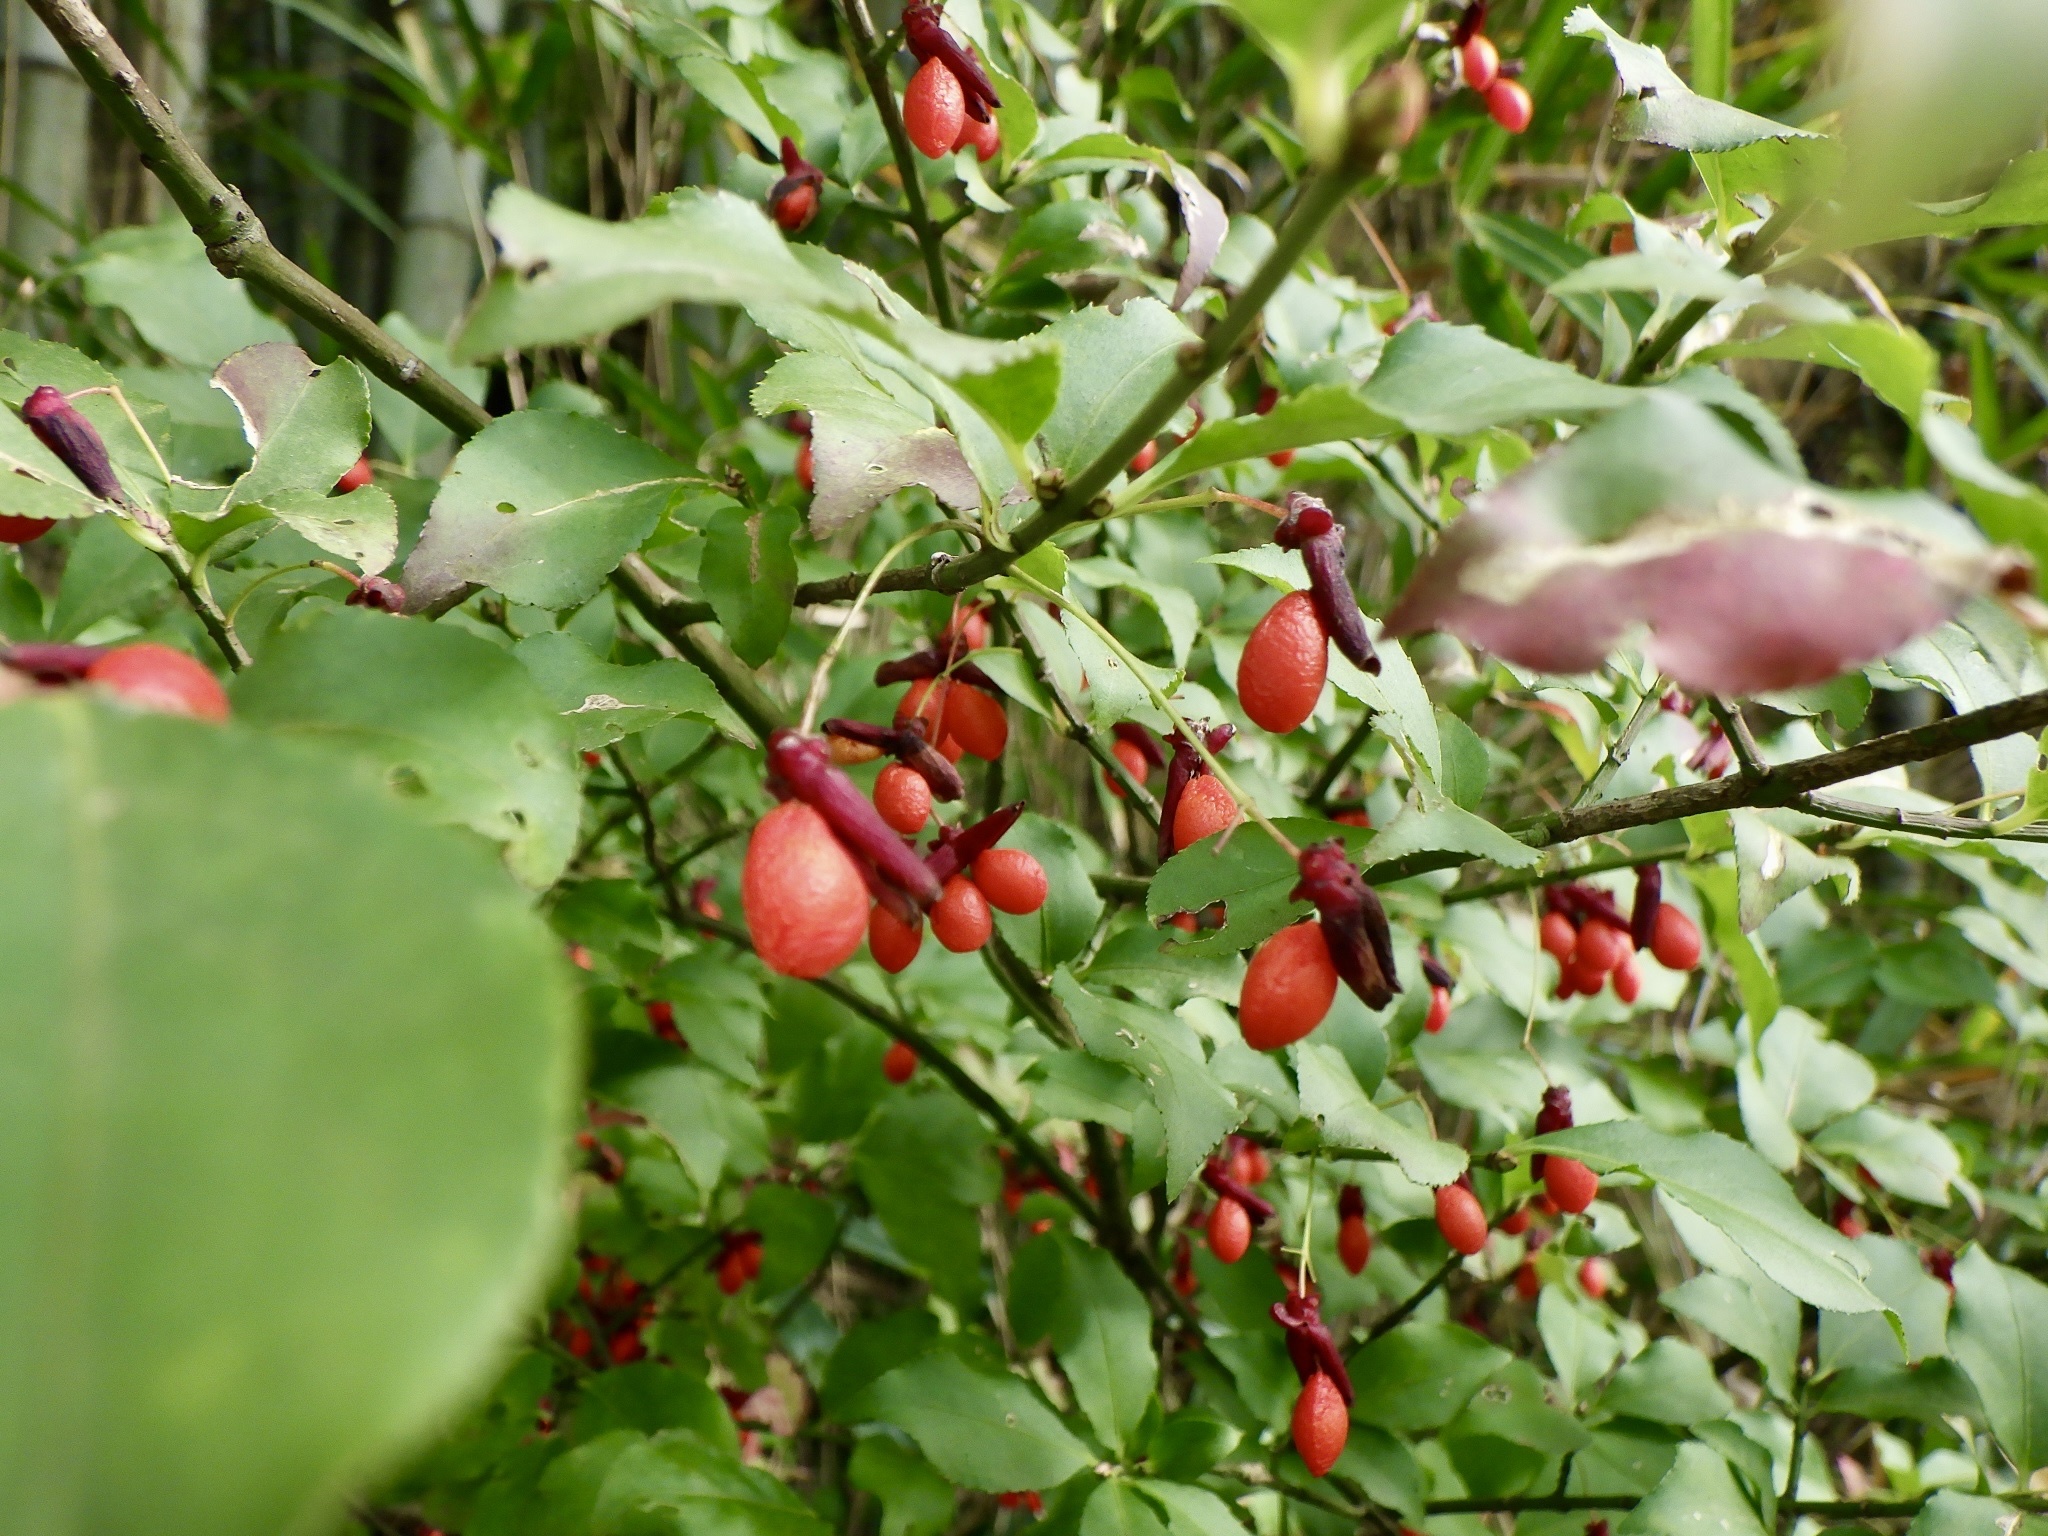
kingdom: Plantae
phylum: Tracheophyta
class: Magnoliopsida
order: Celastrales
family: Celastraceae
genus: Euonymus
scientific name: Euonymus alatus
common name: Winged euonymus
